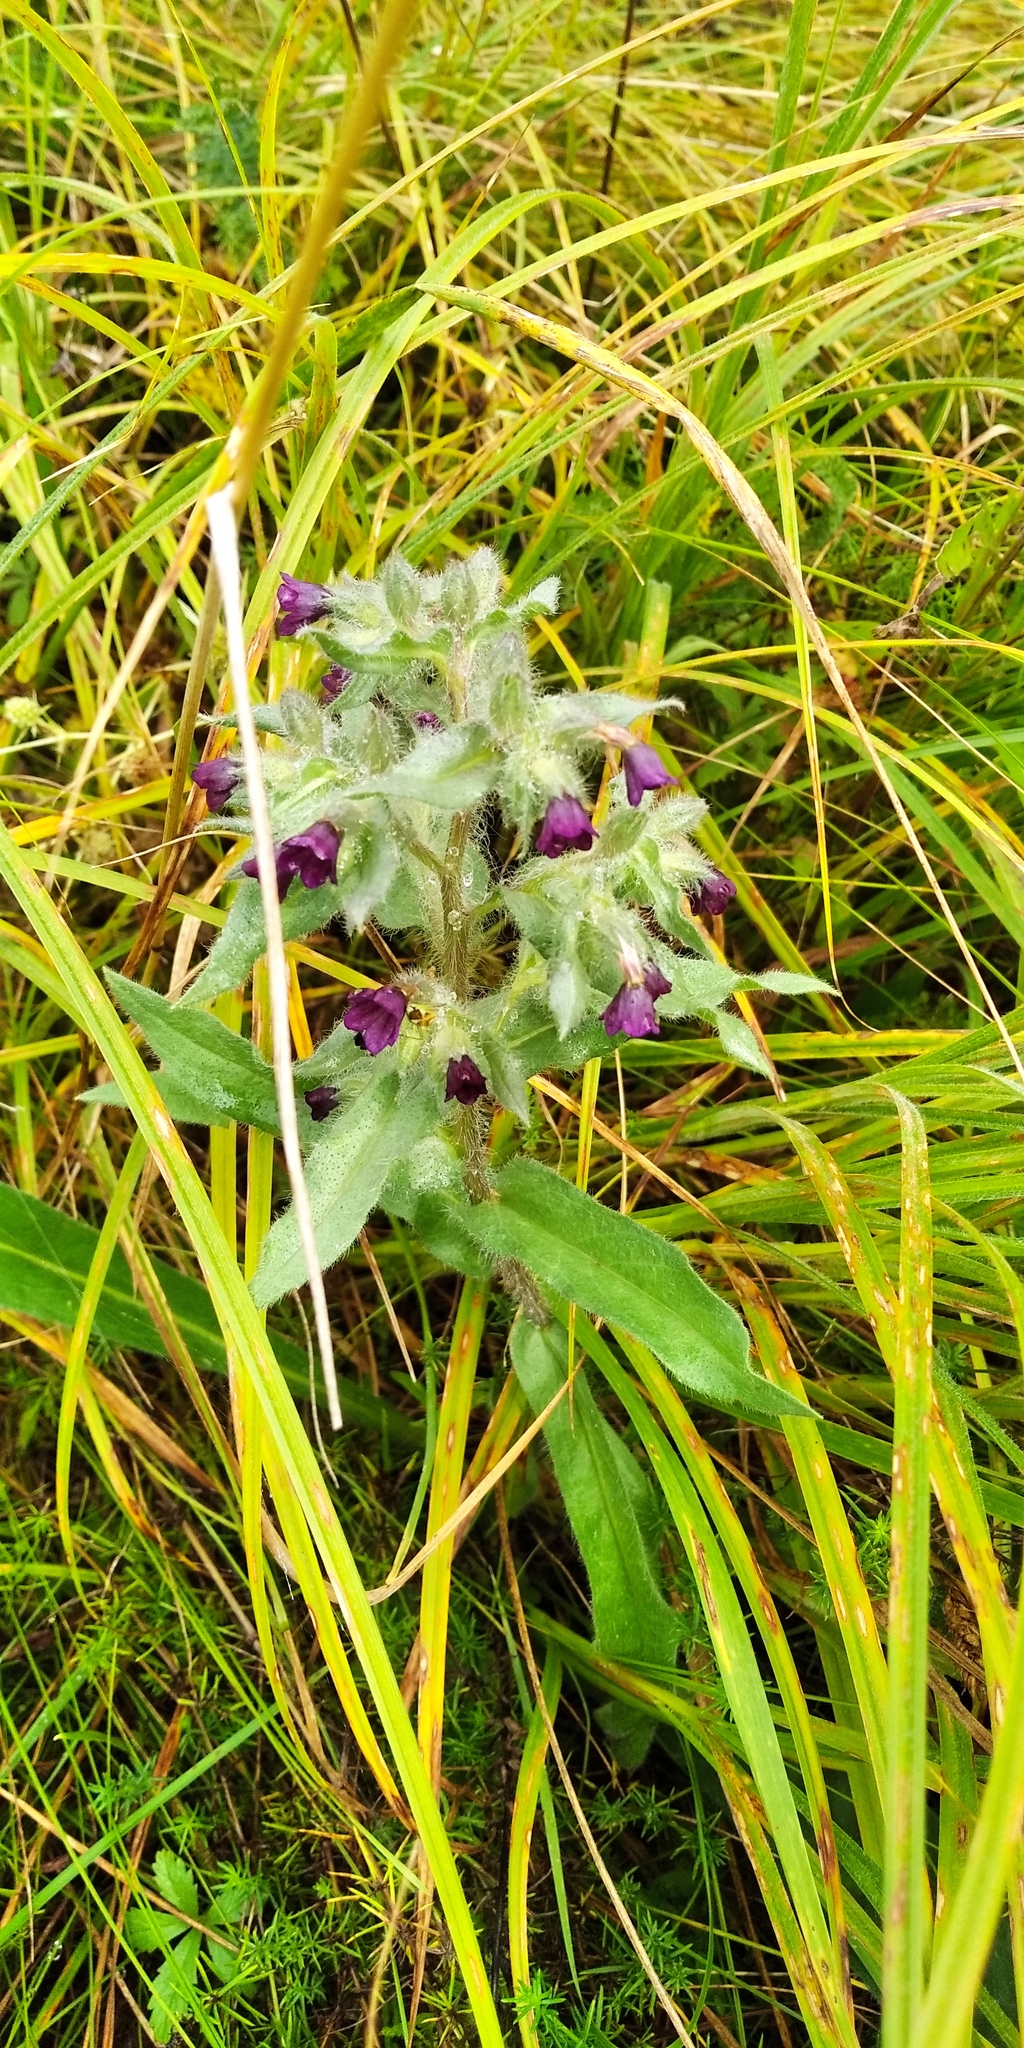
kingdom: Plantae
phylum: Tracheophyta
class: Magnoliopsida
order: Boraginales
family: Boraginaceae
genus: Nonea
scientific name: Nonea pulla
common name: Brown nonea
